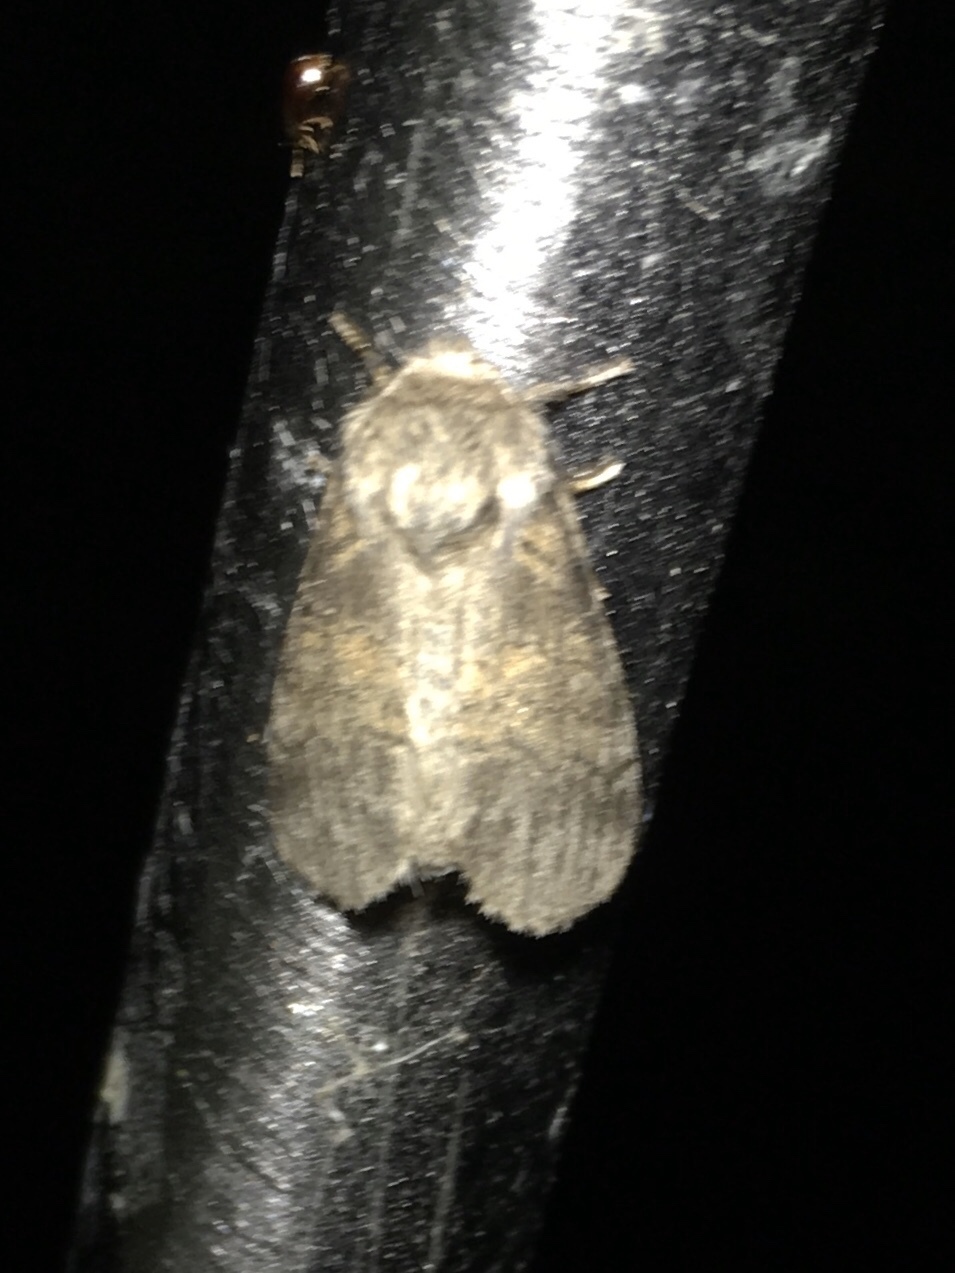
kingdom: Animalia
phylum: Arthropoda
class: Insecta
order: Lepidoptera
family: Notodontidae
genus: Gluphisia
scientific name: Gluphisia septentrionis
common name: Common gluphisia
